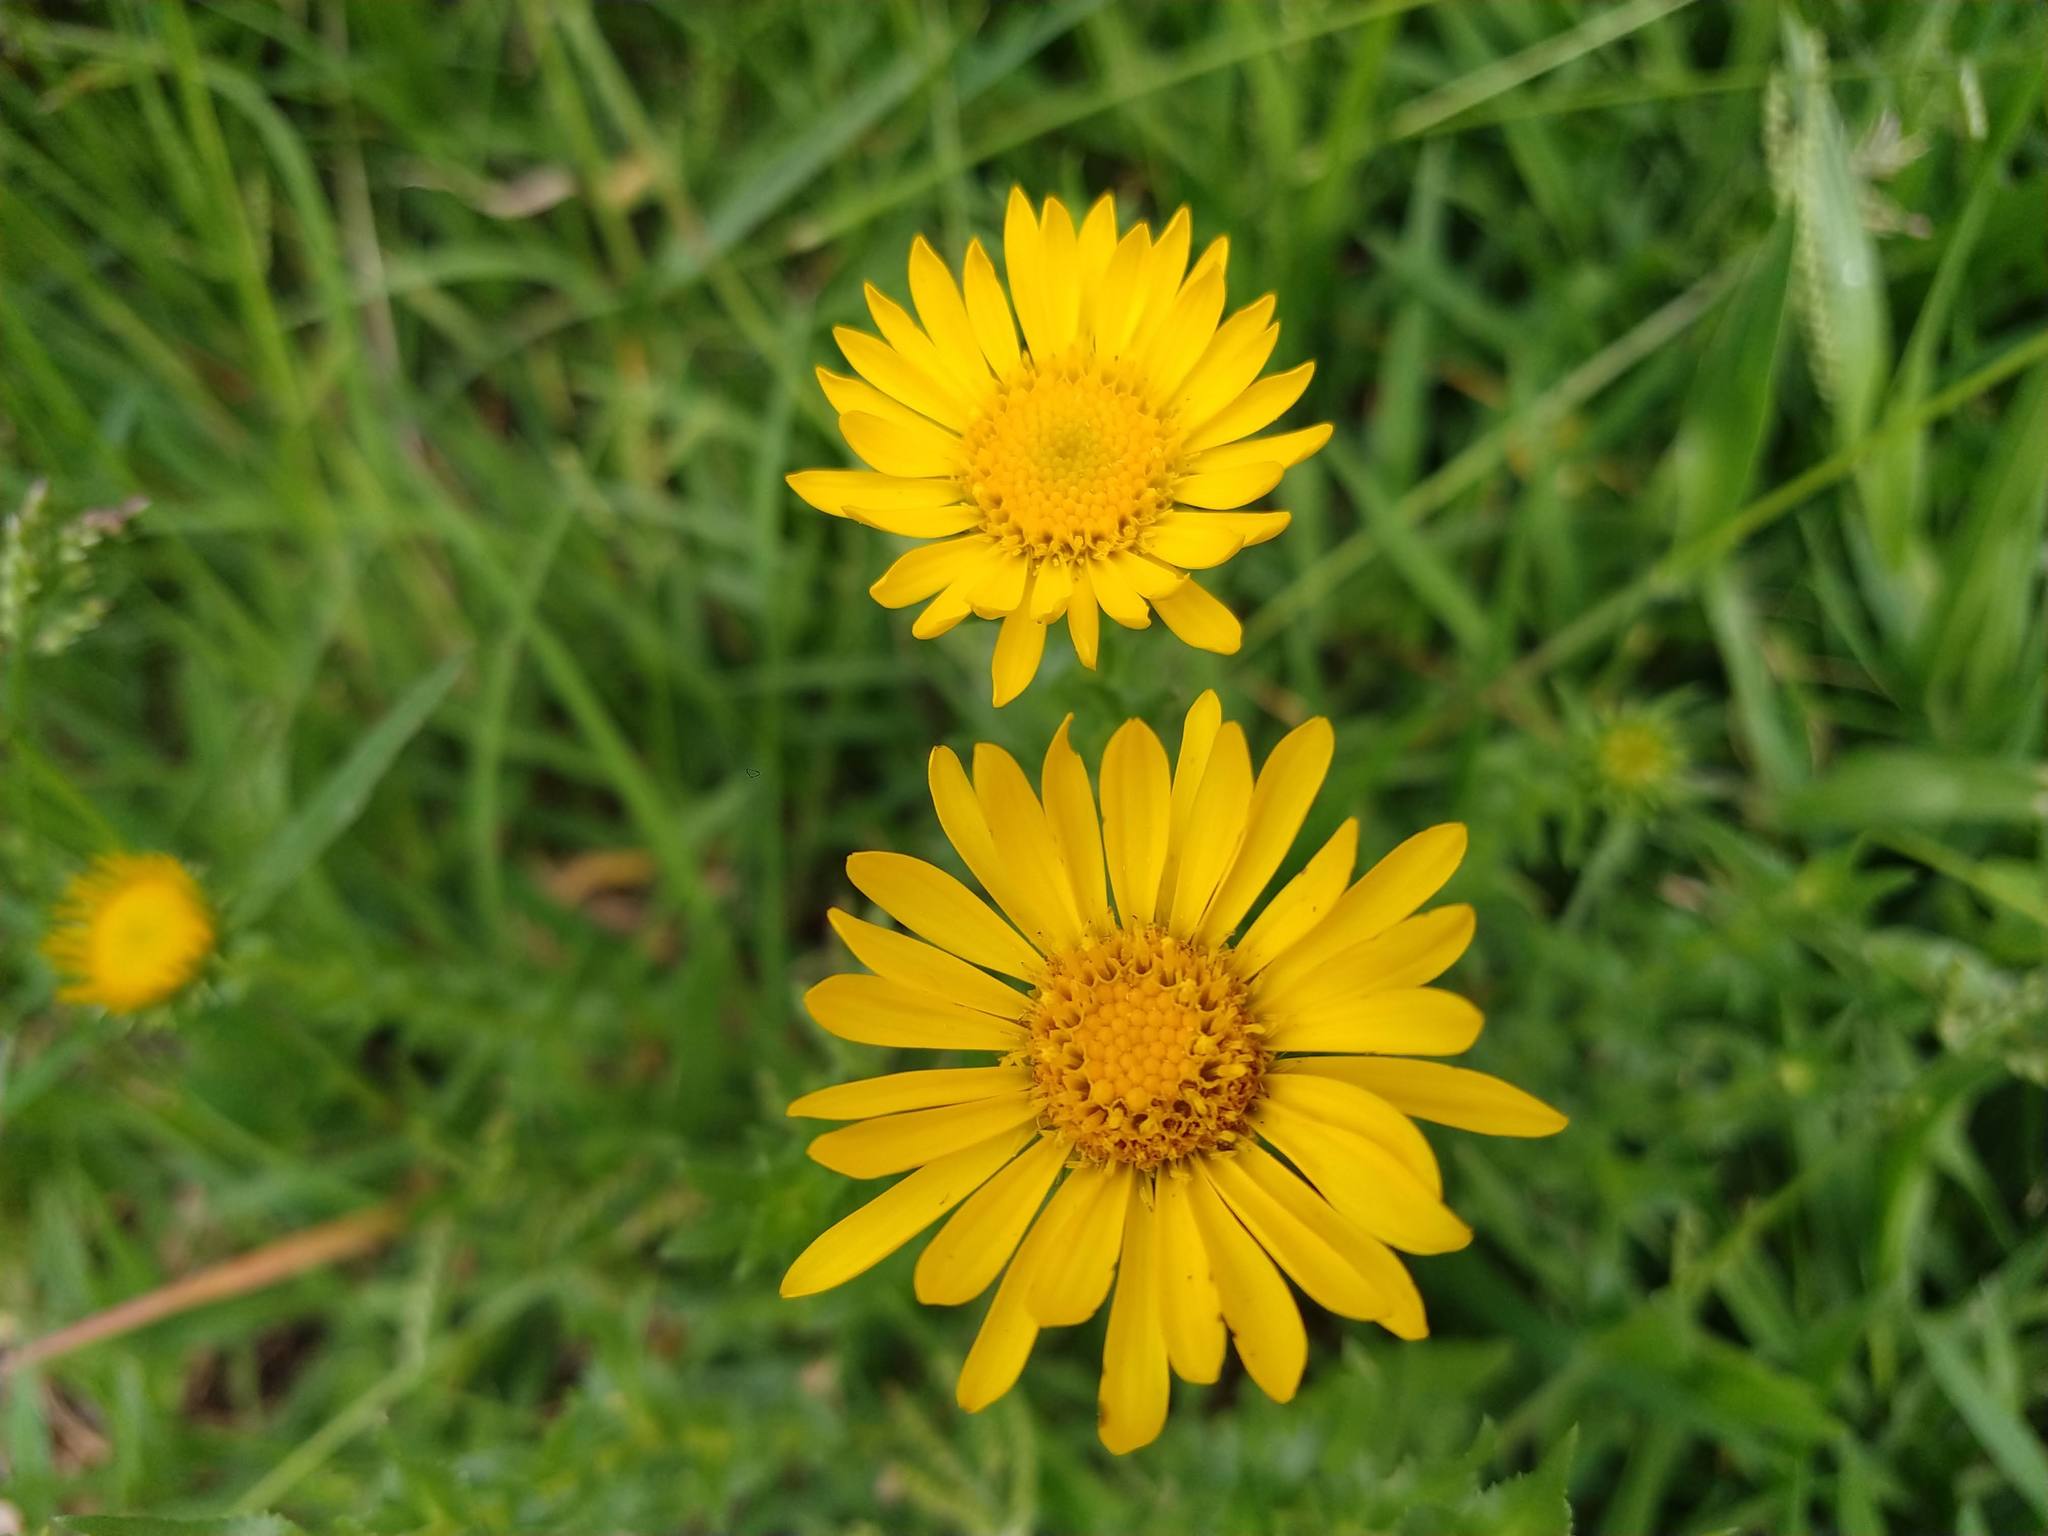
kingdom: Plantae
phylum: Tracheophyta
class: Magnoliopsida
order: Asterales
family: Asteraceae
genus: Grindelia
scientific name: Grindelia inuloides
